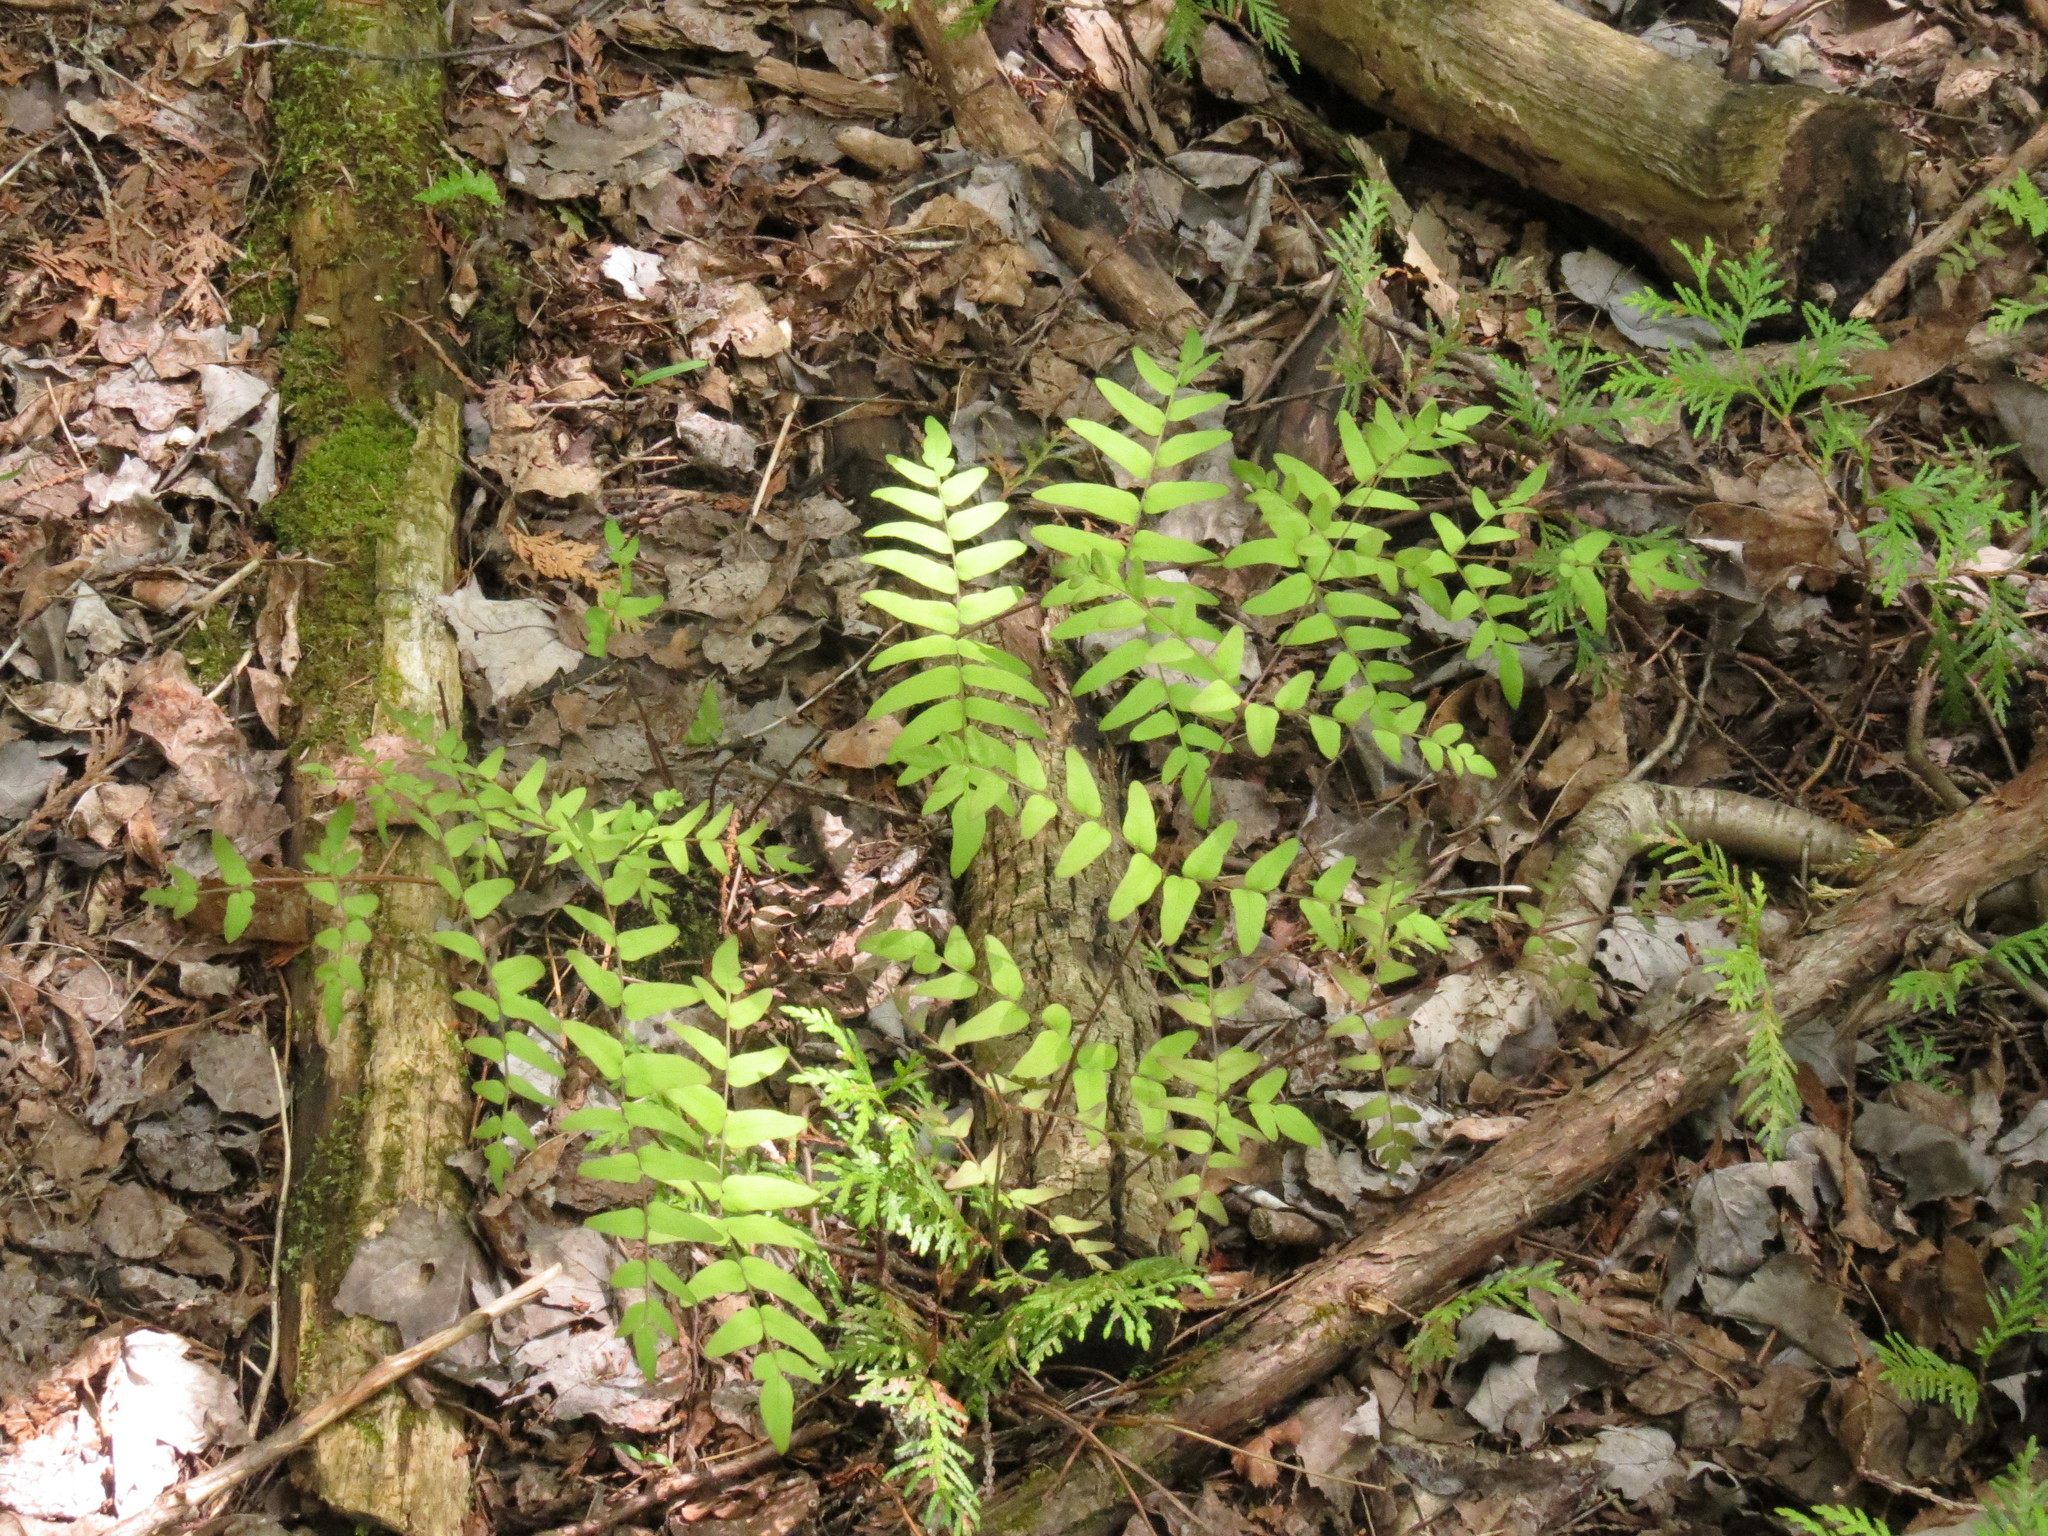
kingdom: Plantae
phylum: Tracheophyta
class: Polypodiopsida
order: Osmundales
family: Osmundaceae
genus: Osmunda
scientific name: Osmunda spectabilis
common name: American royal fern
